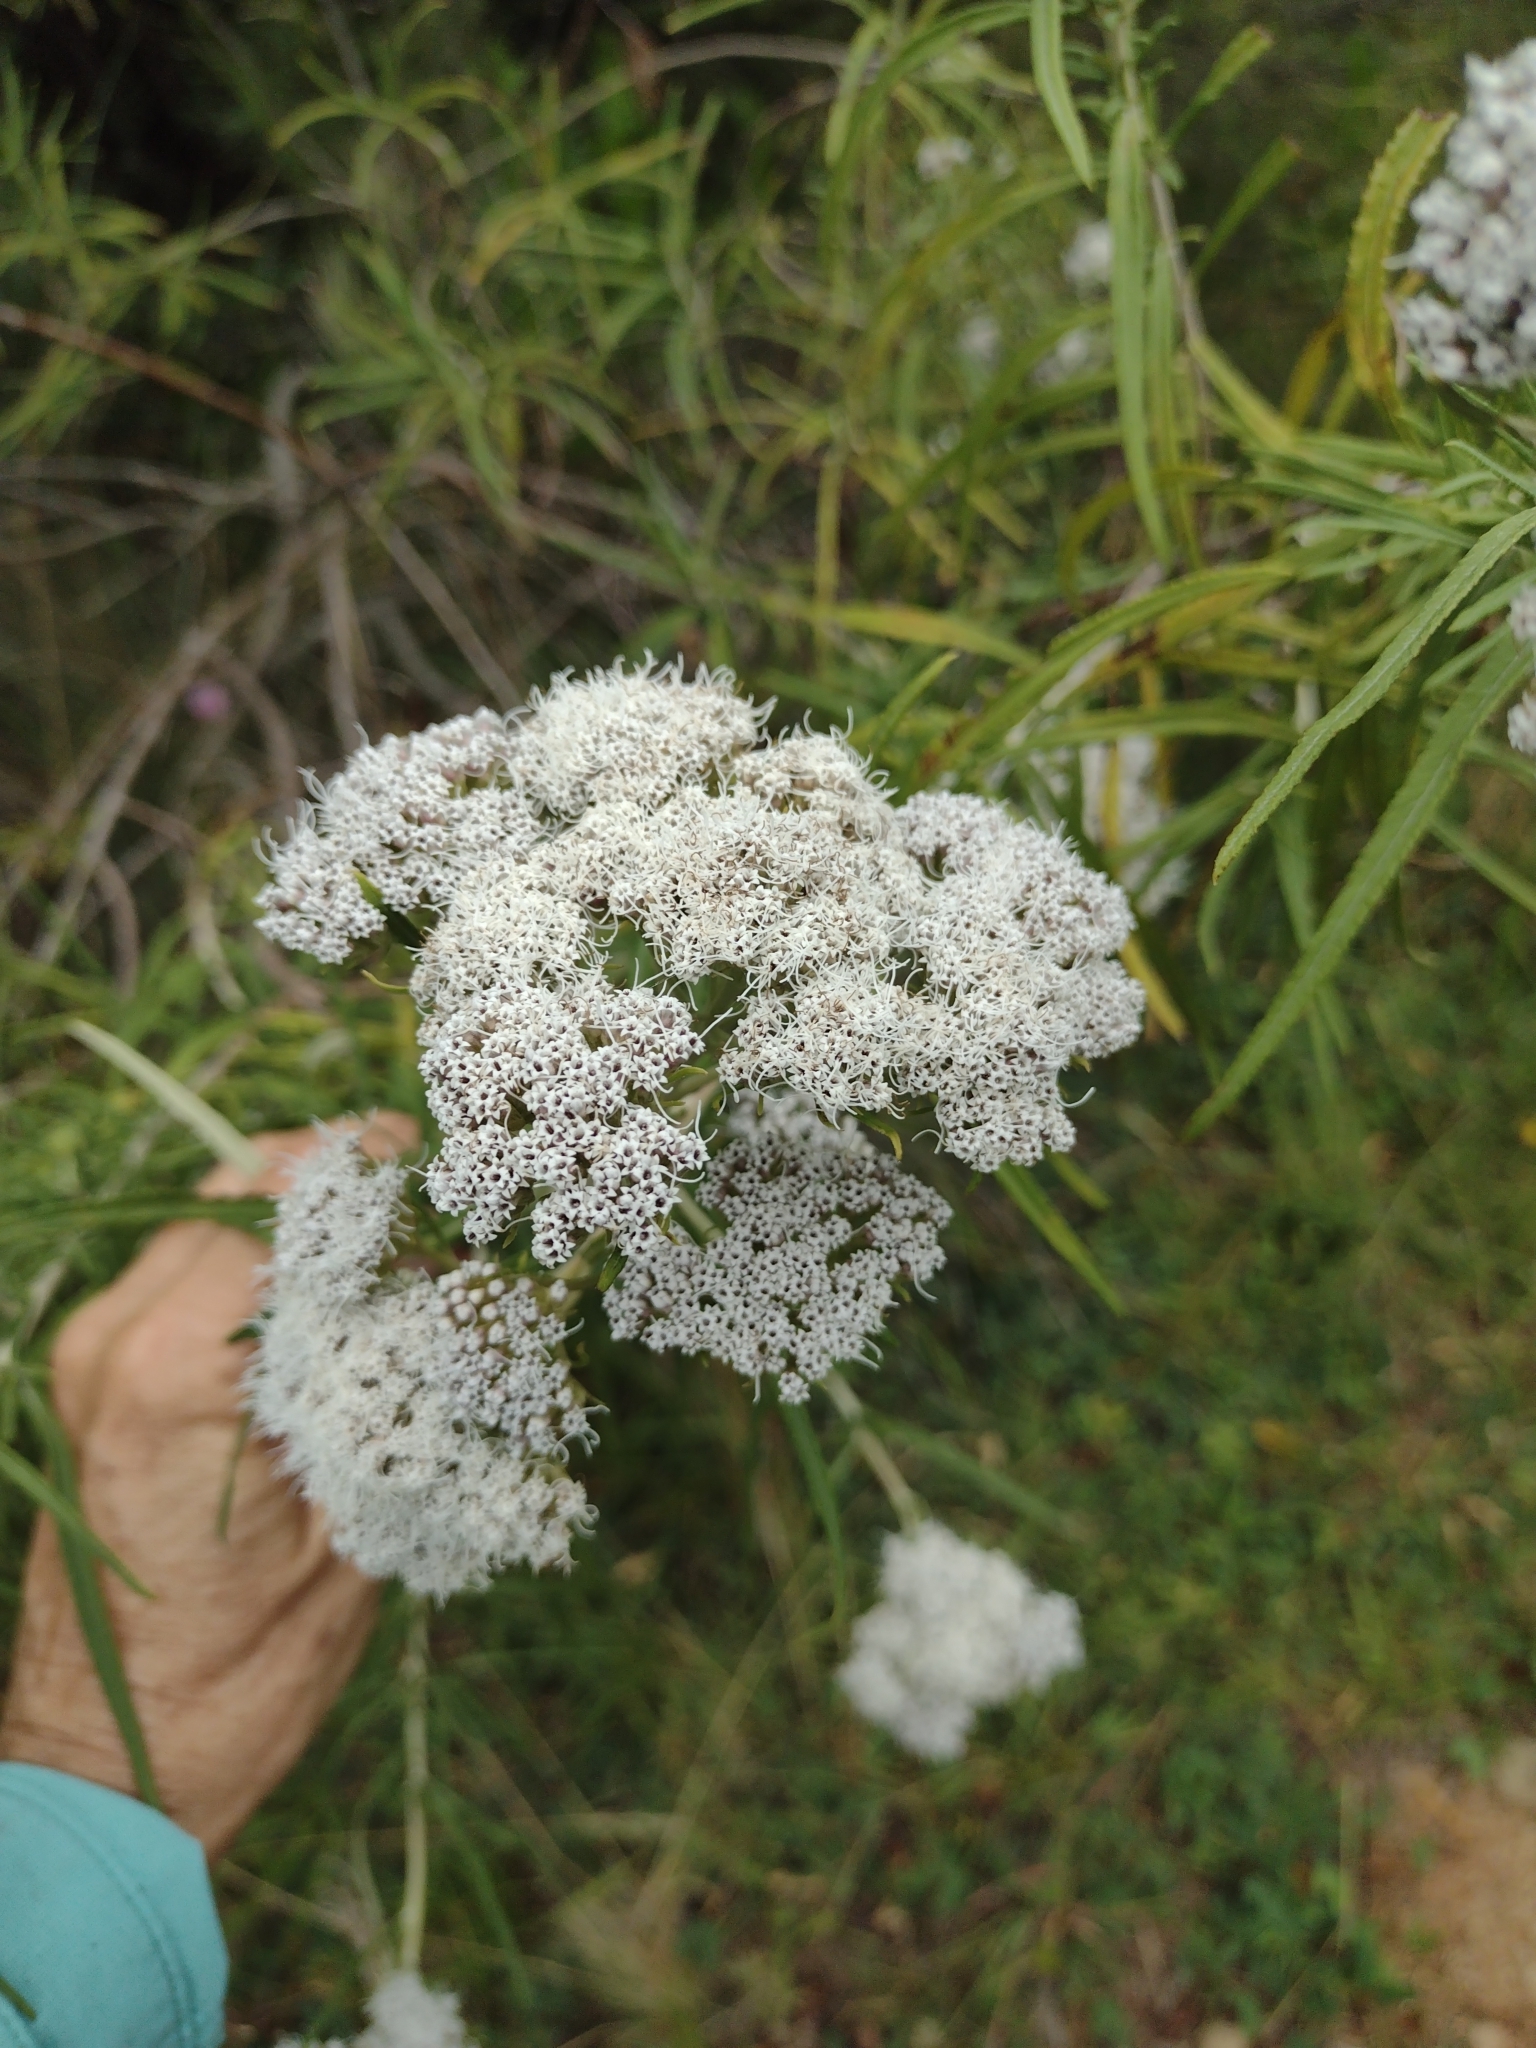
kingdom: Plantae
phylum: Tracheophyta
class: Magnoliopsida
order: Asterales
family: Asteraceae
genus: Grazielia
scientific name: Grazielia serrata
